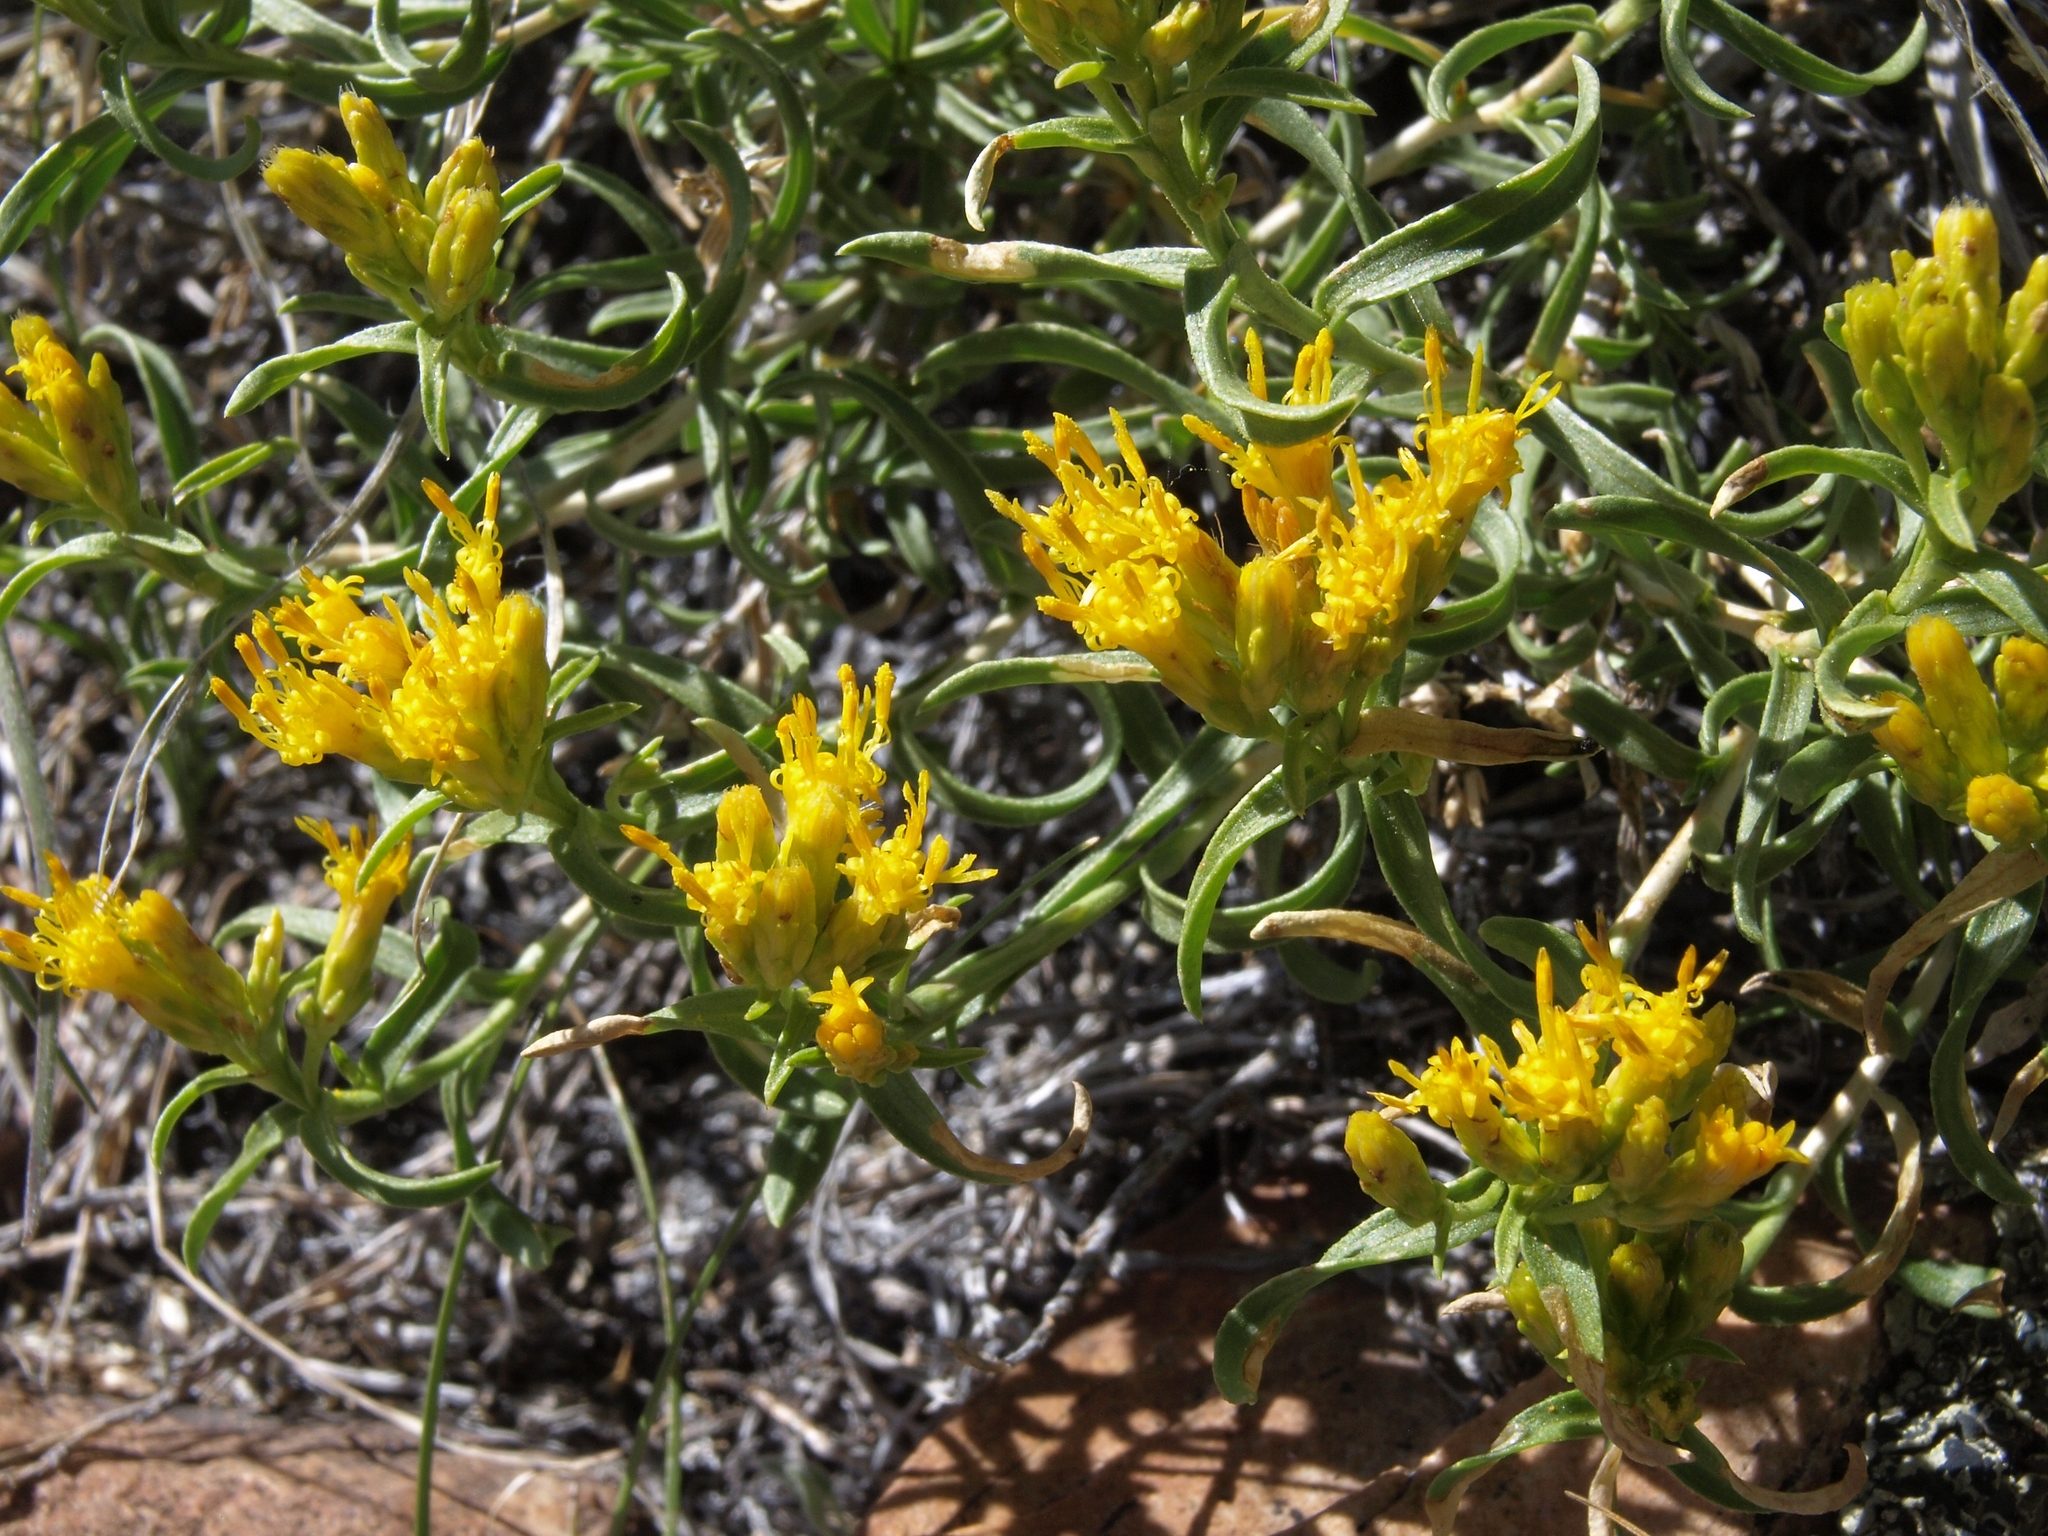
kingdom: Plantae
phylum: Tracheophyta
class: Magnoliopsida
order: Asterales
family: Asteraceae
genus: Chrysothamnus
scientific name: Chrysothamnus viscidiflorus
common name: Yellow rabbitbrush
